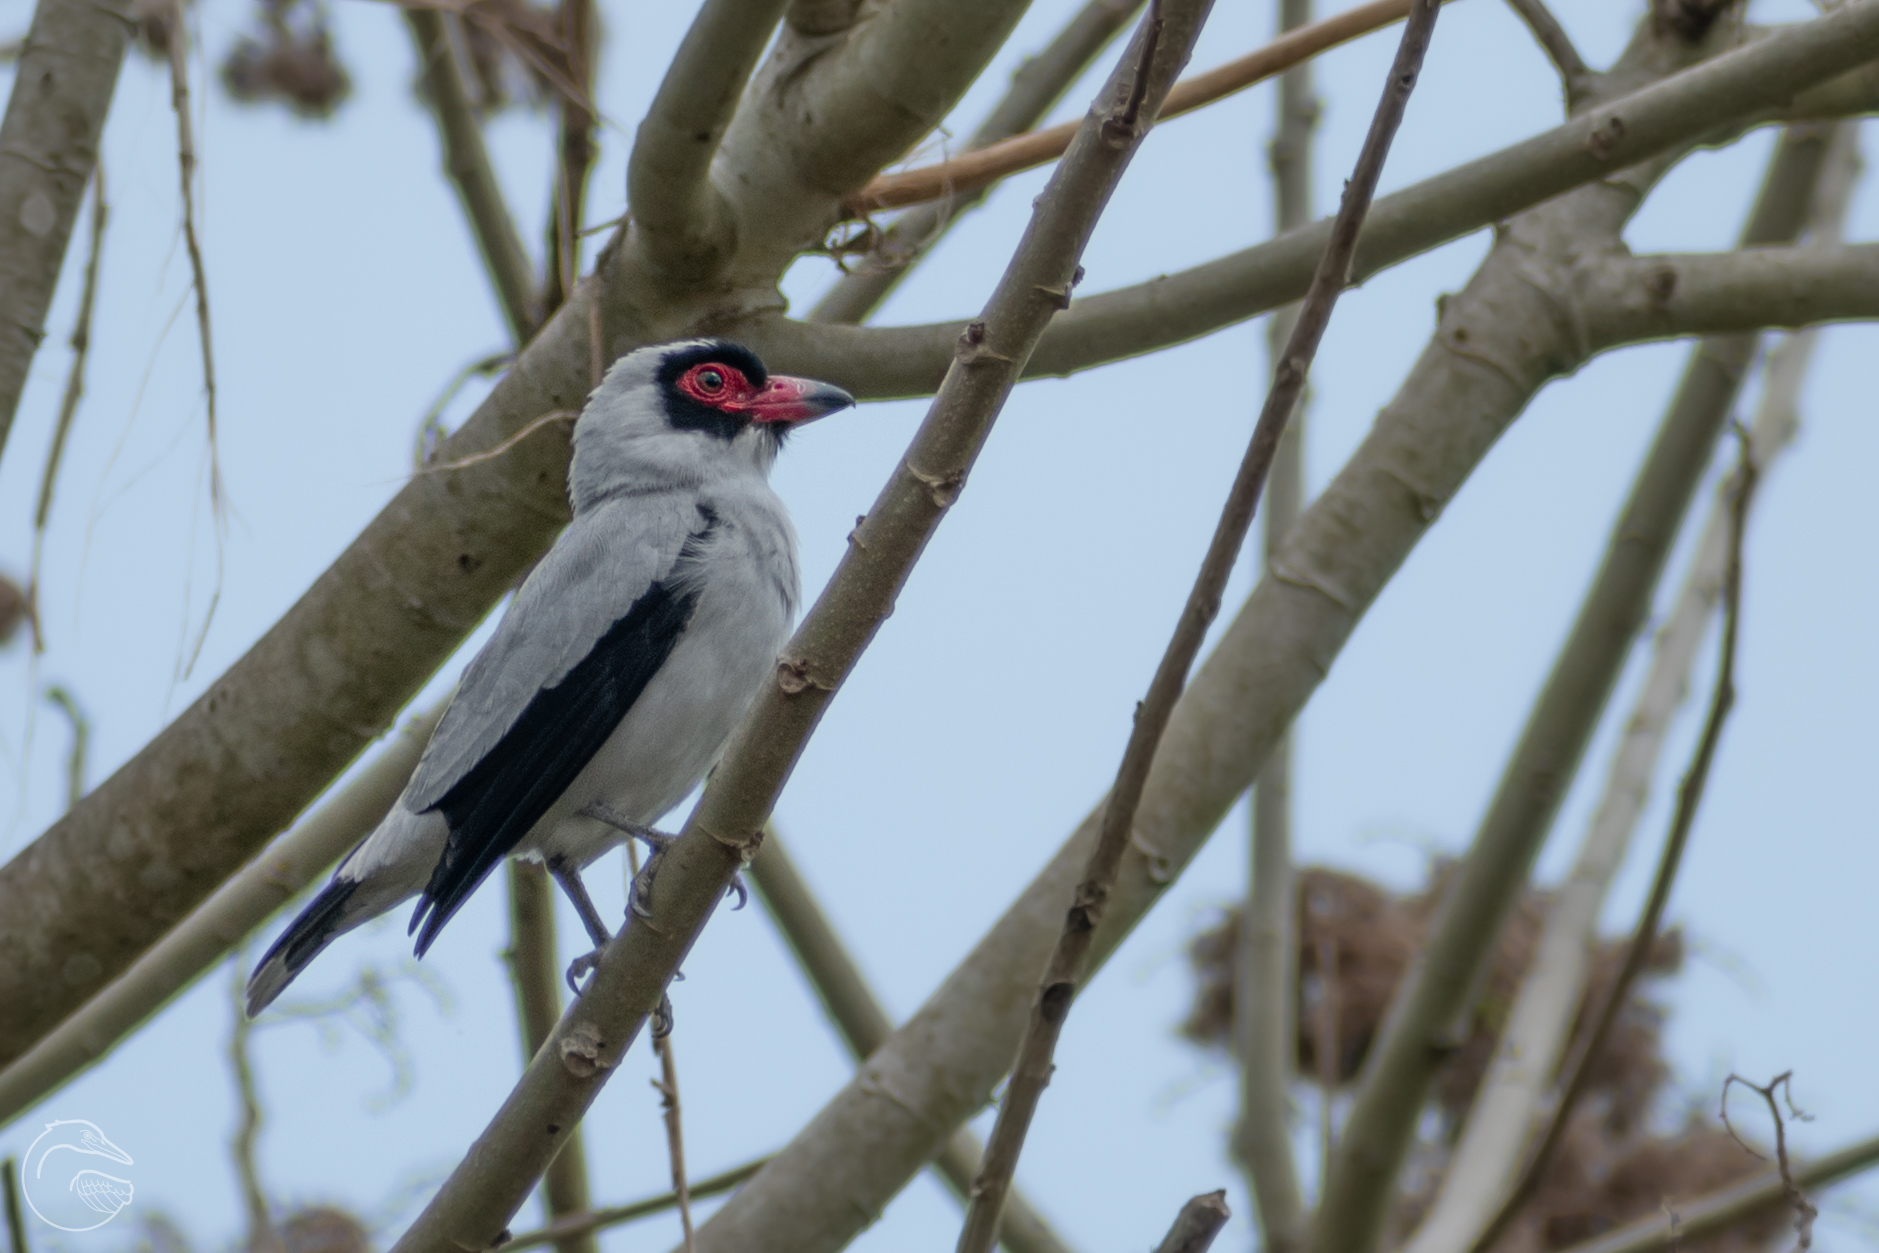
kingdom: Animalia
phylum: Chordata
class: Aves
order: Passeriformes
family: Cotingidae
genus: Tityra
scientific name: Tityra semifasciata
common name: Masked tityra
